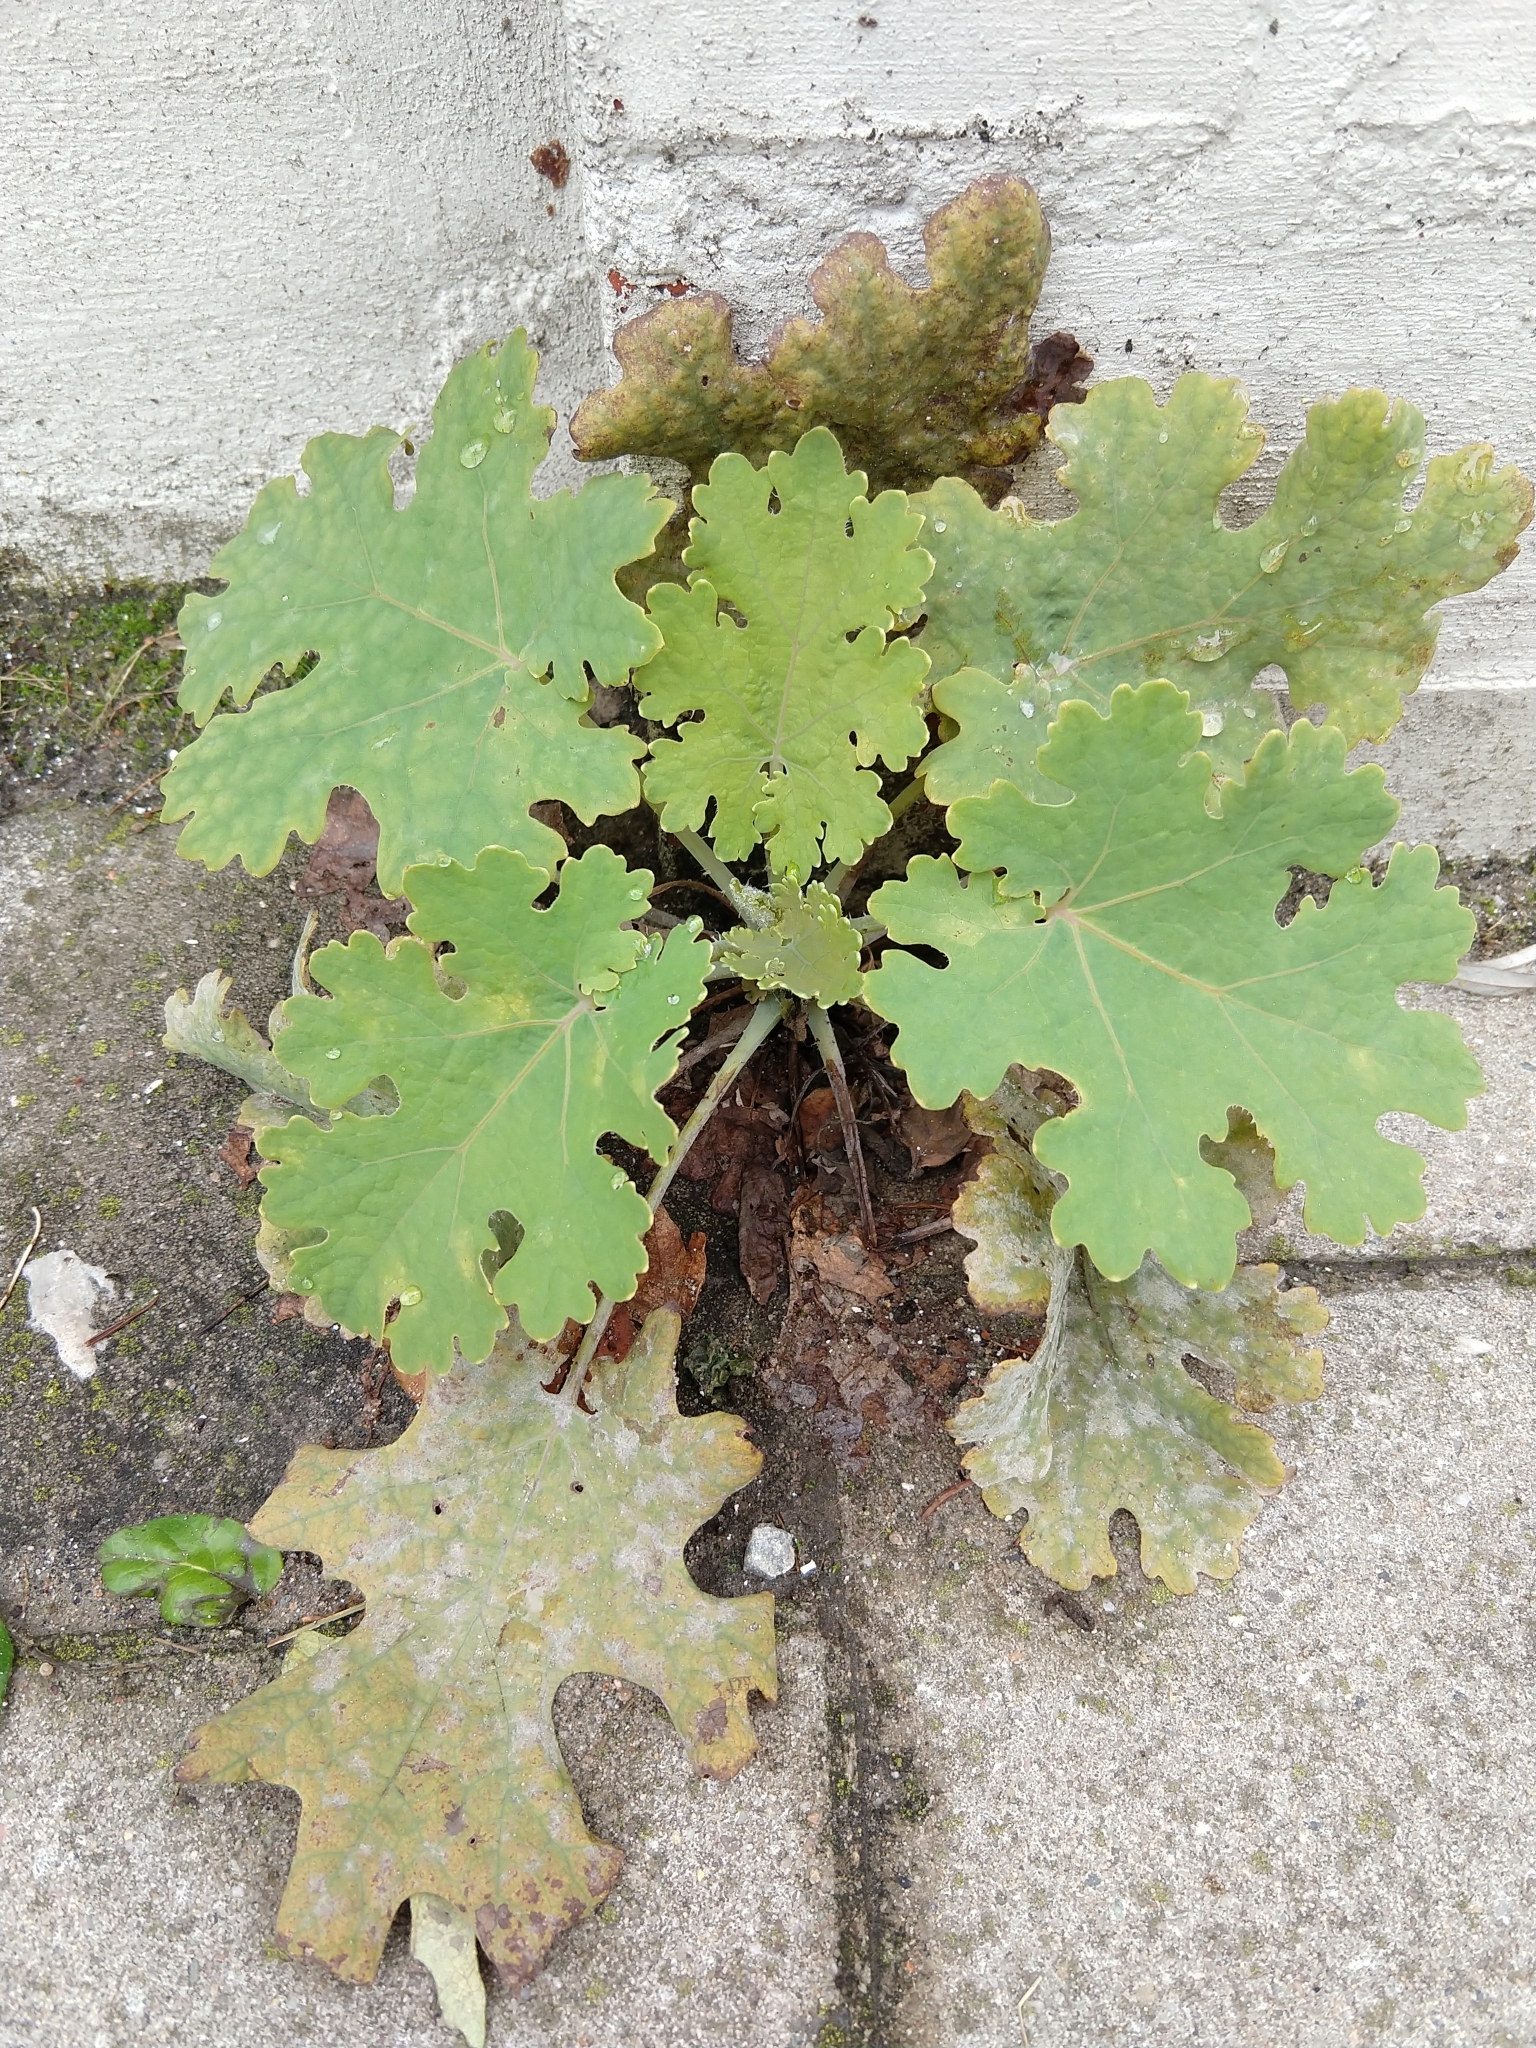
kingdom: Plantae
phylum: Tracheophyta
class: Magnoliopsida
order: Ranunculales
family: Papaveraceae
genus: Macleaya
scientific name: Macleaya cordata
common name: Plume poppy
